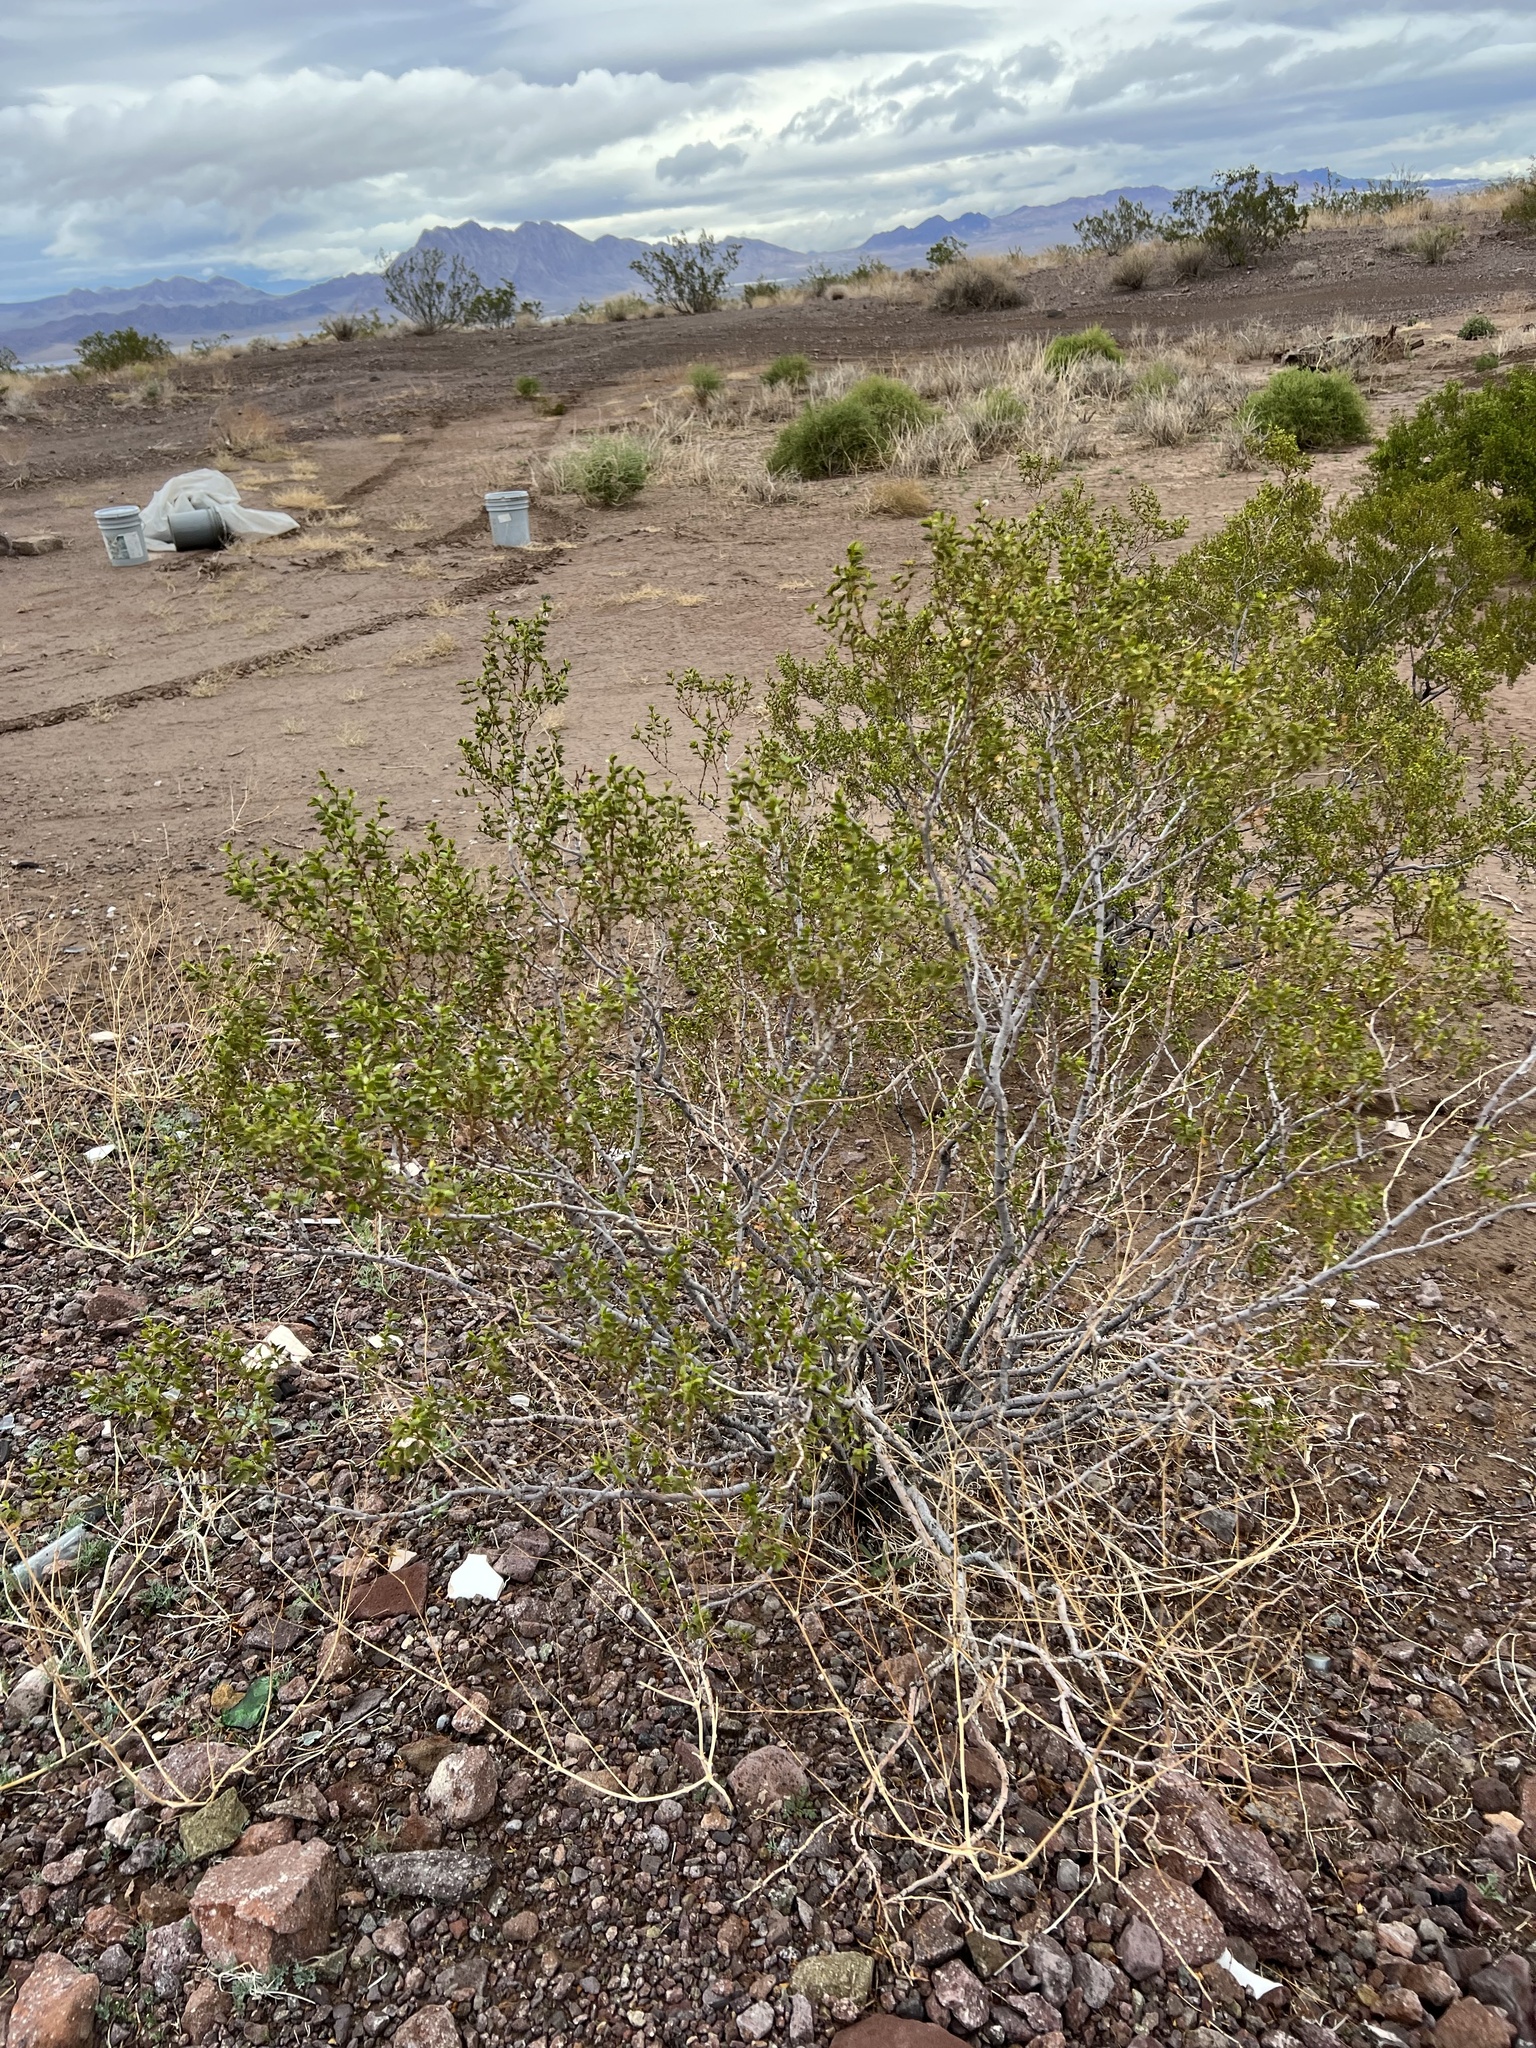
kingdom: Plantae
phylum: Tracheophyta
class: Magnoliopsida
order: Zygophyllales
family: Zygophyllaceae
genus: Larrea
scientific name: Larrea tridentata
